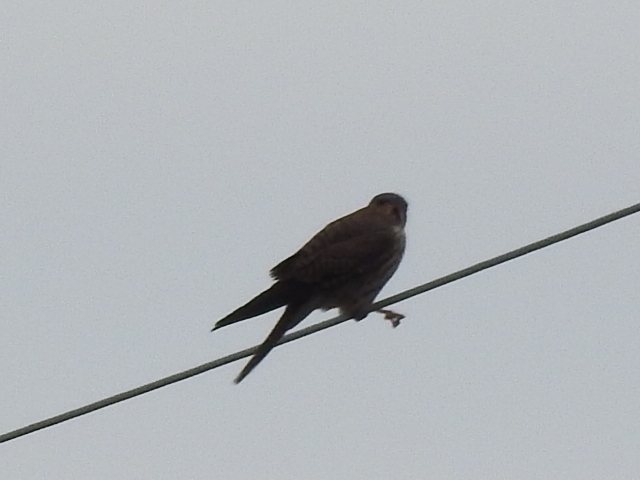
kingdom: Animalia
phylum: Chordata
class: Aves
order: Falconiformes
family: Falconidae
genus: Falco
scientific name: Falco sparverius
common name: American kestrel
